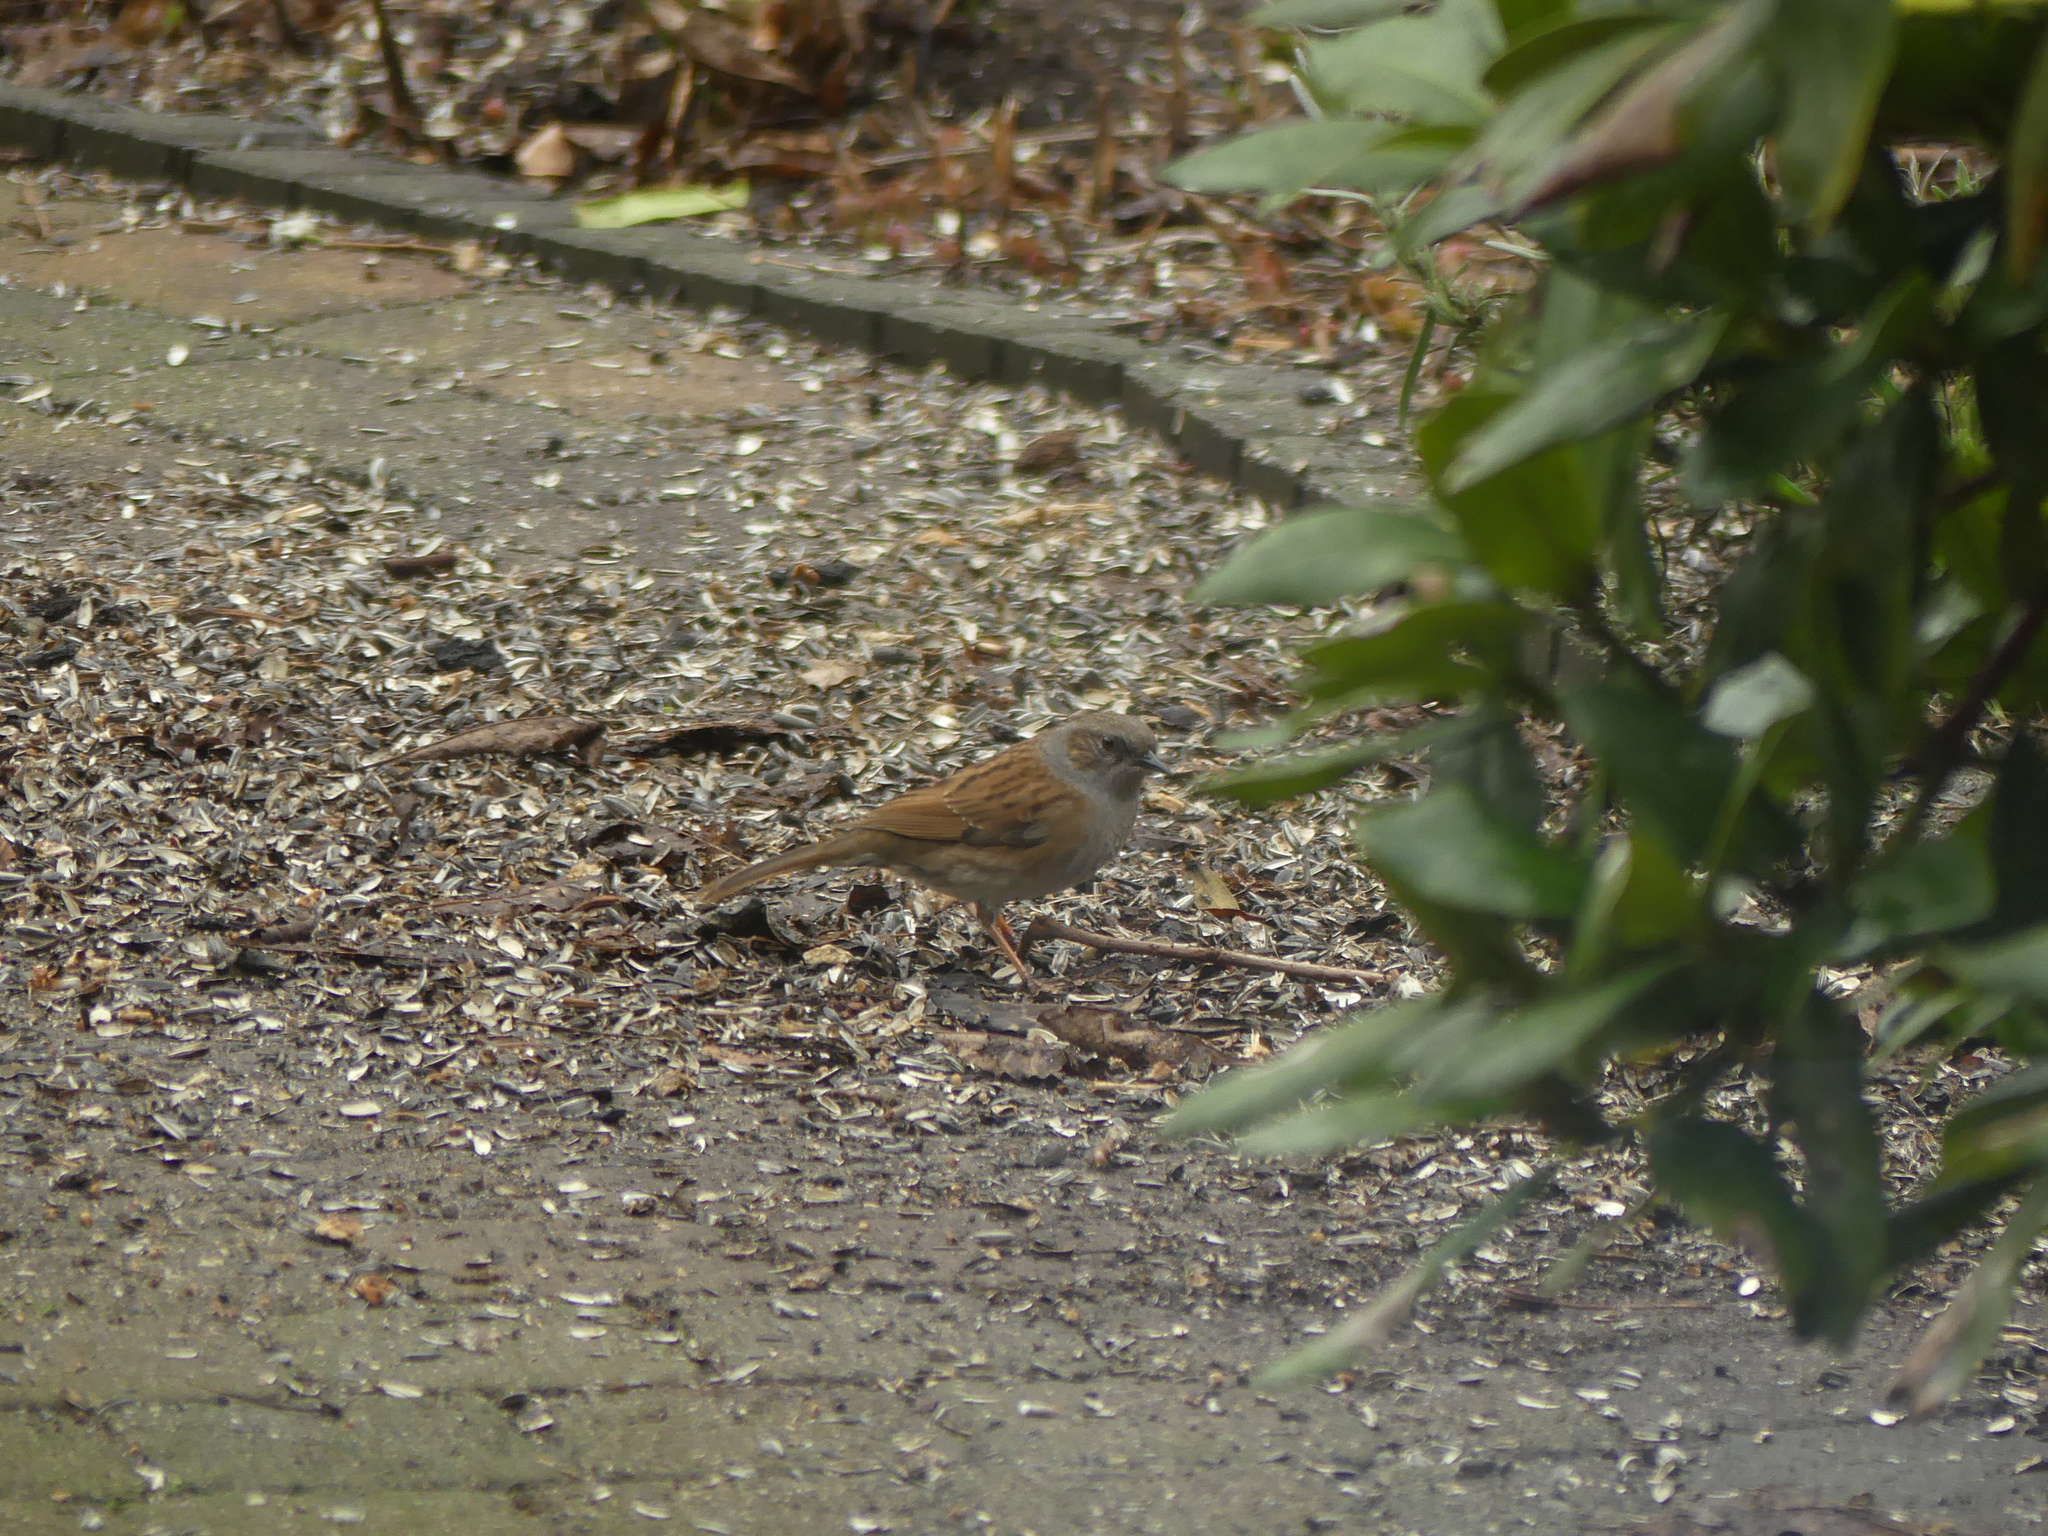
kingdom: Animalia
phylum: Chordata
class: Aves
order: Passeriformes
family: Prunellidae
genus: Prunella
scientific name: Prunella modularis
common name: Dunnock
